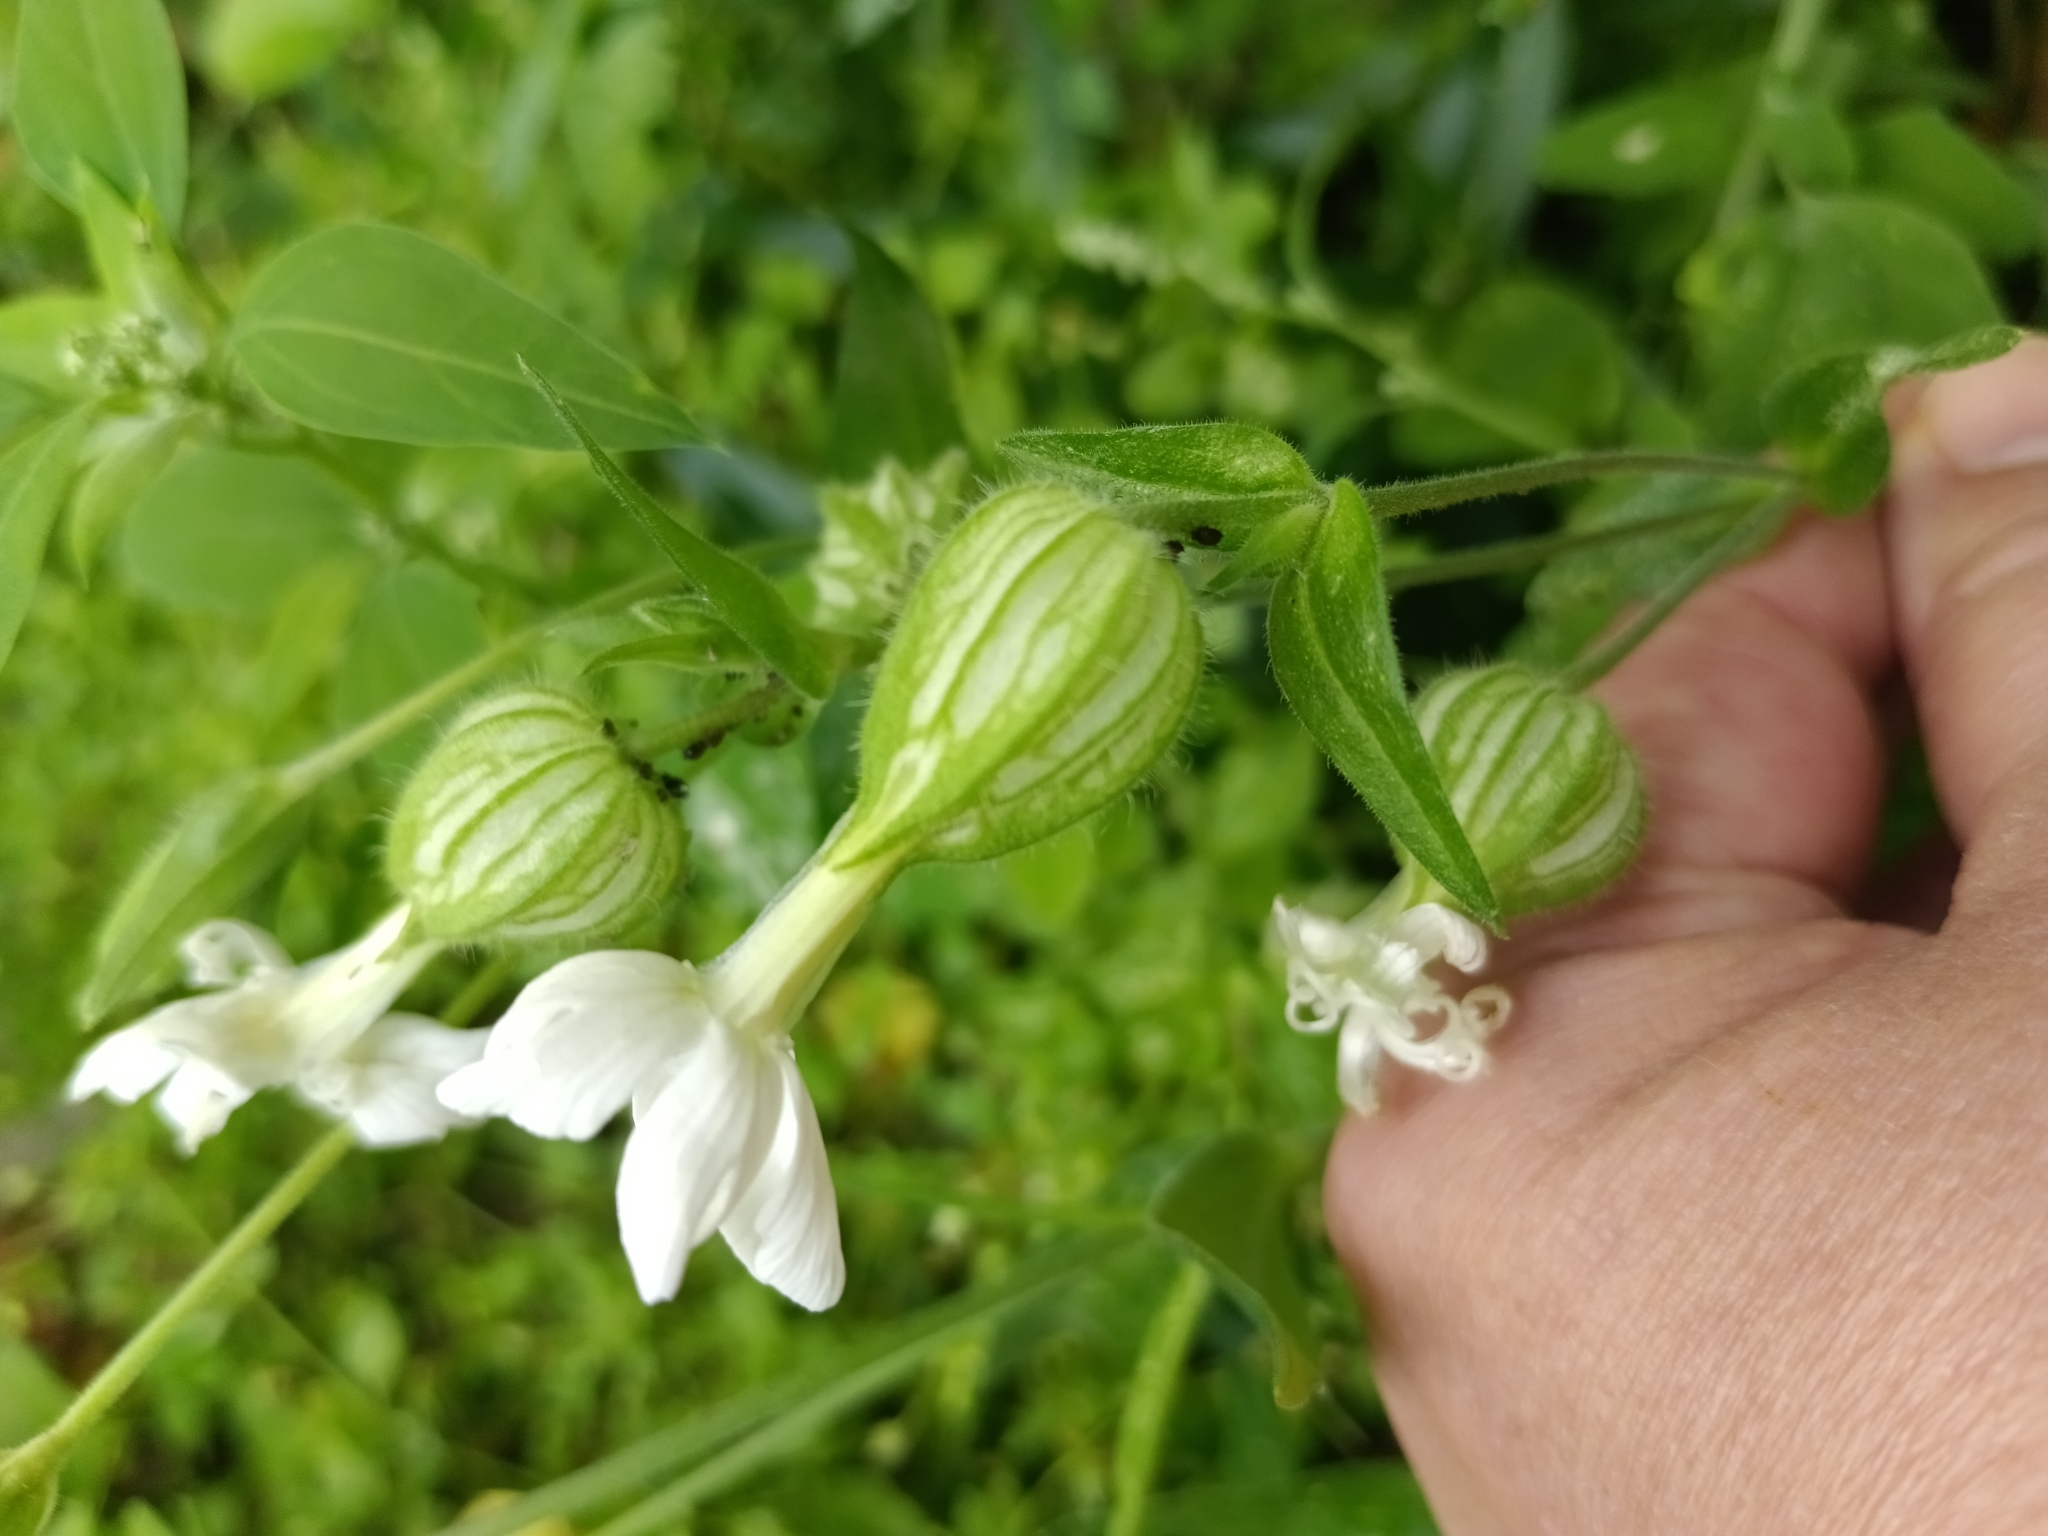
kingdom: Plantae
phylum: Tracheophyta
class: Magnoliopsida
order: Caryophyllales
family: Caryophyllaceae
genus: Silene
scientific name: Silene latifolia
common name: White campion
